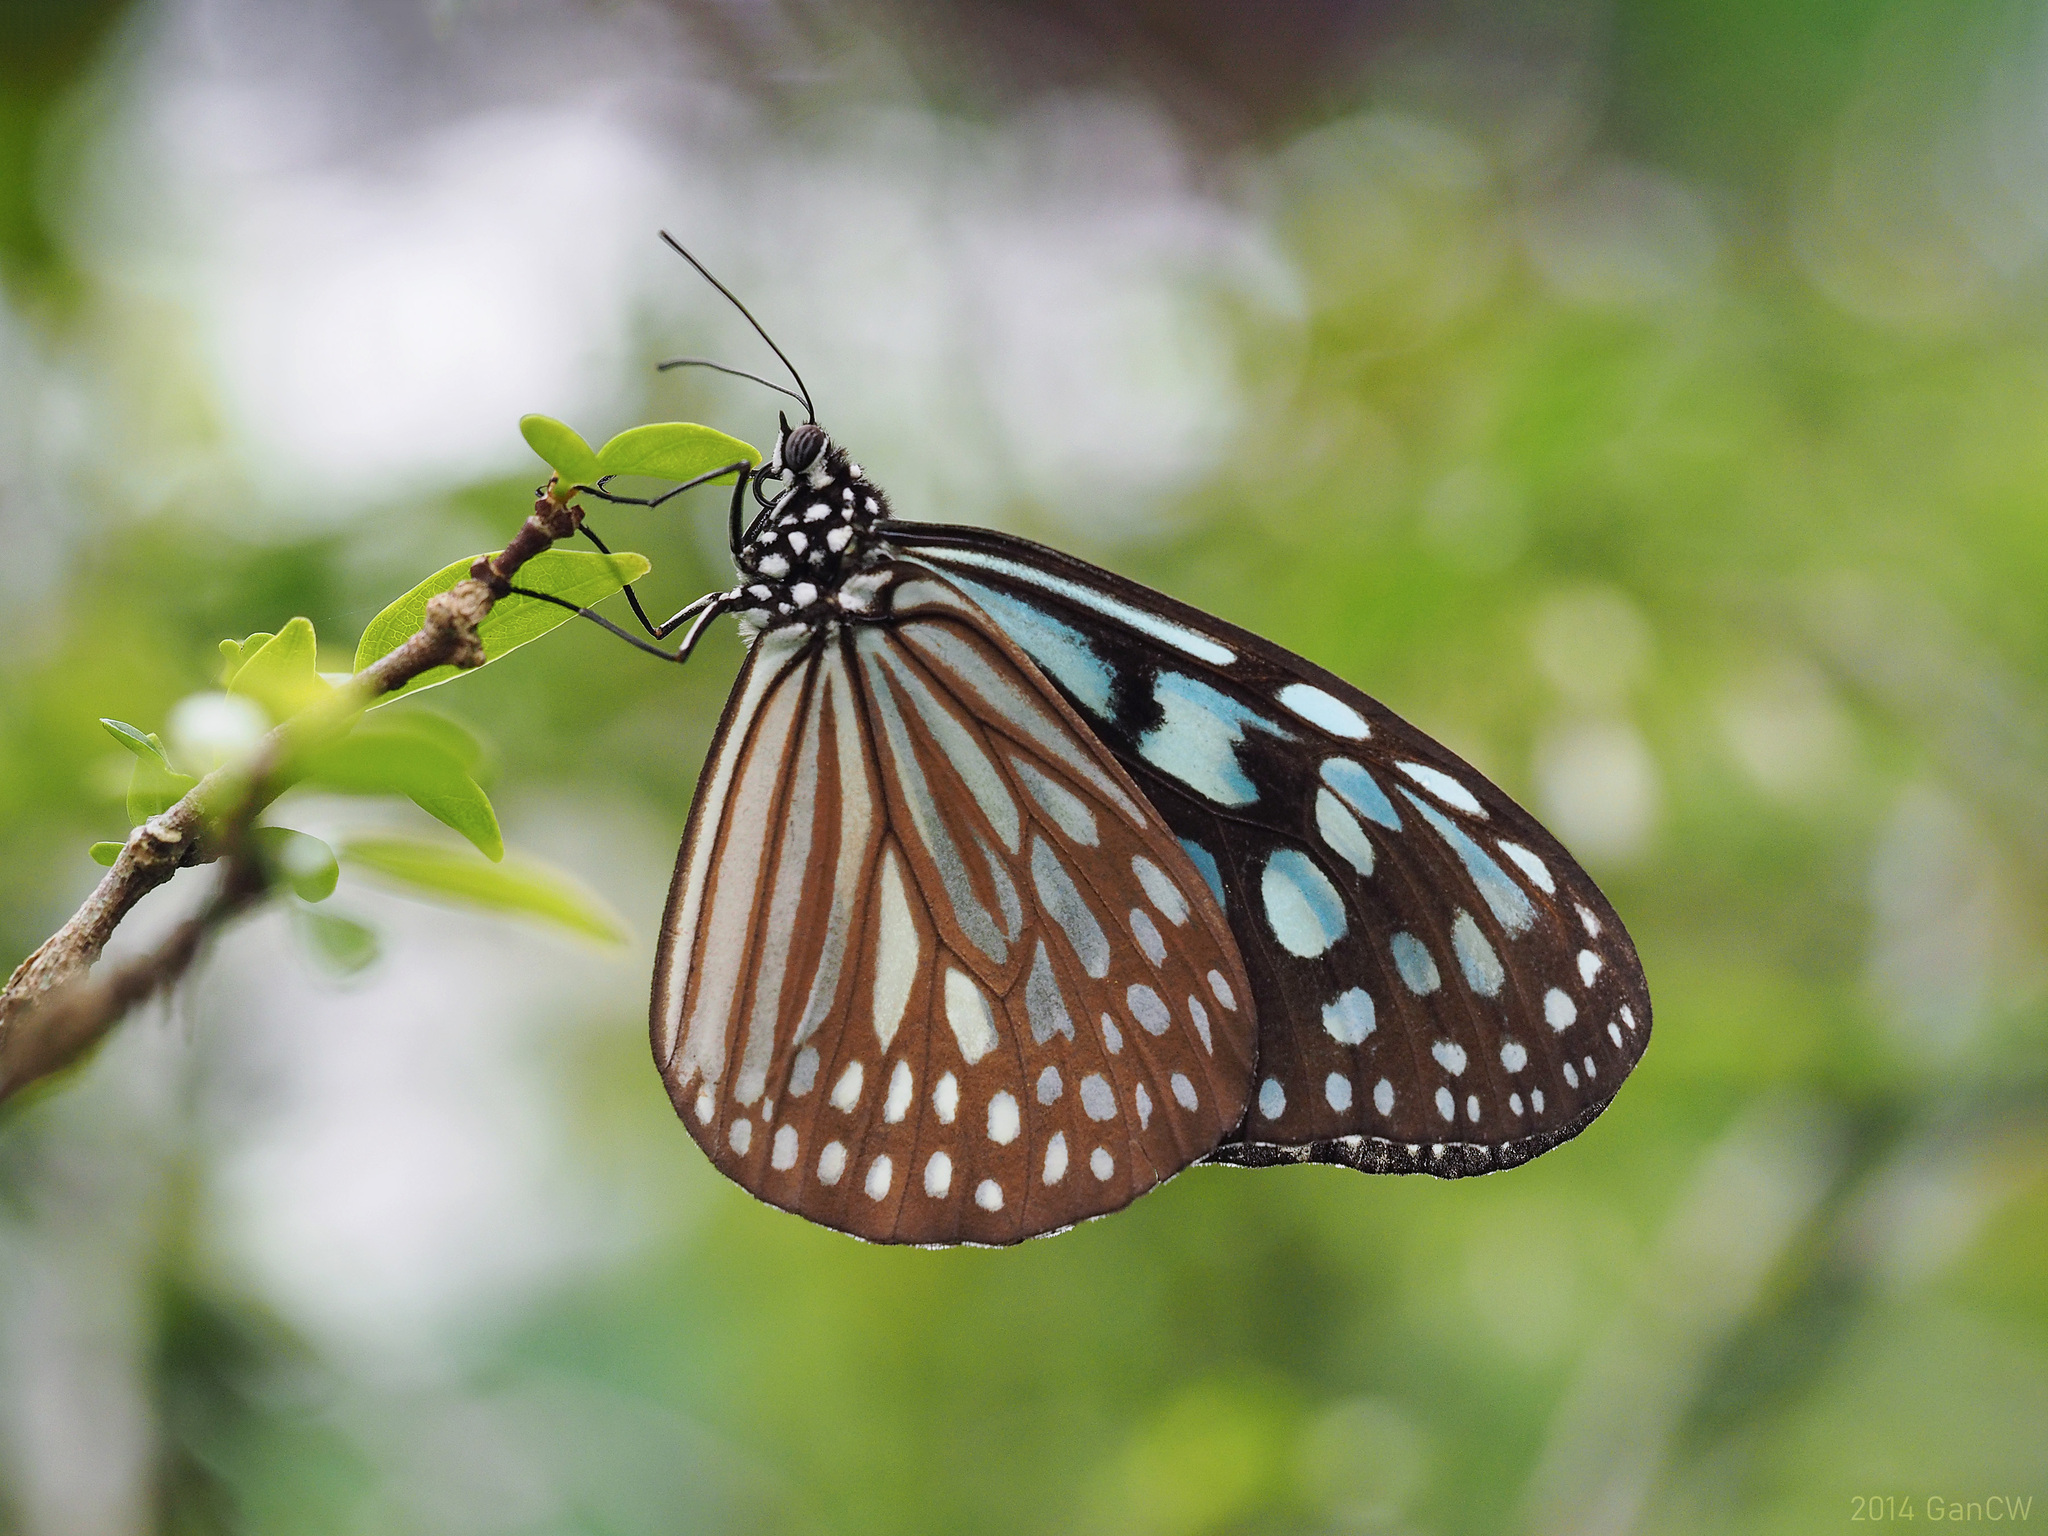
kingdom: Animalia
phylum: Arthropoda
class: Insecta
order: Lepidoptera
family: Nymphalidae
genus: Ideopsis
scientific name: Ideopsis similis
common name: Ceylon blue glassy tiger
